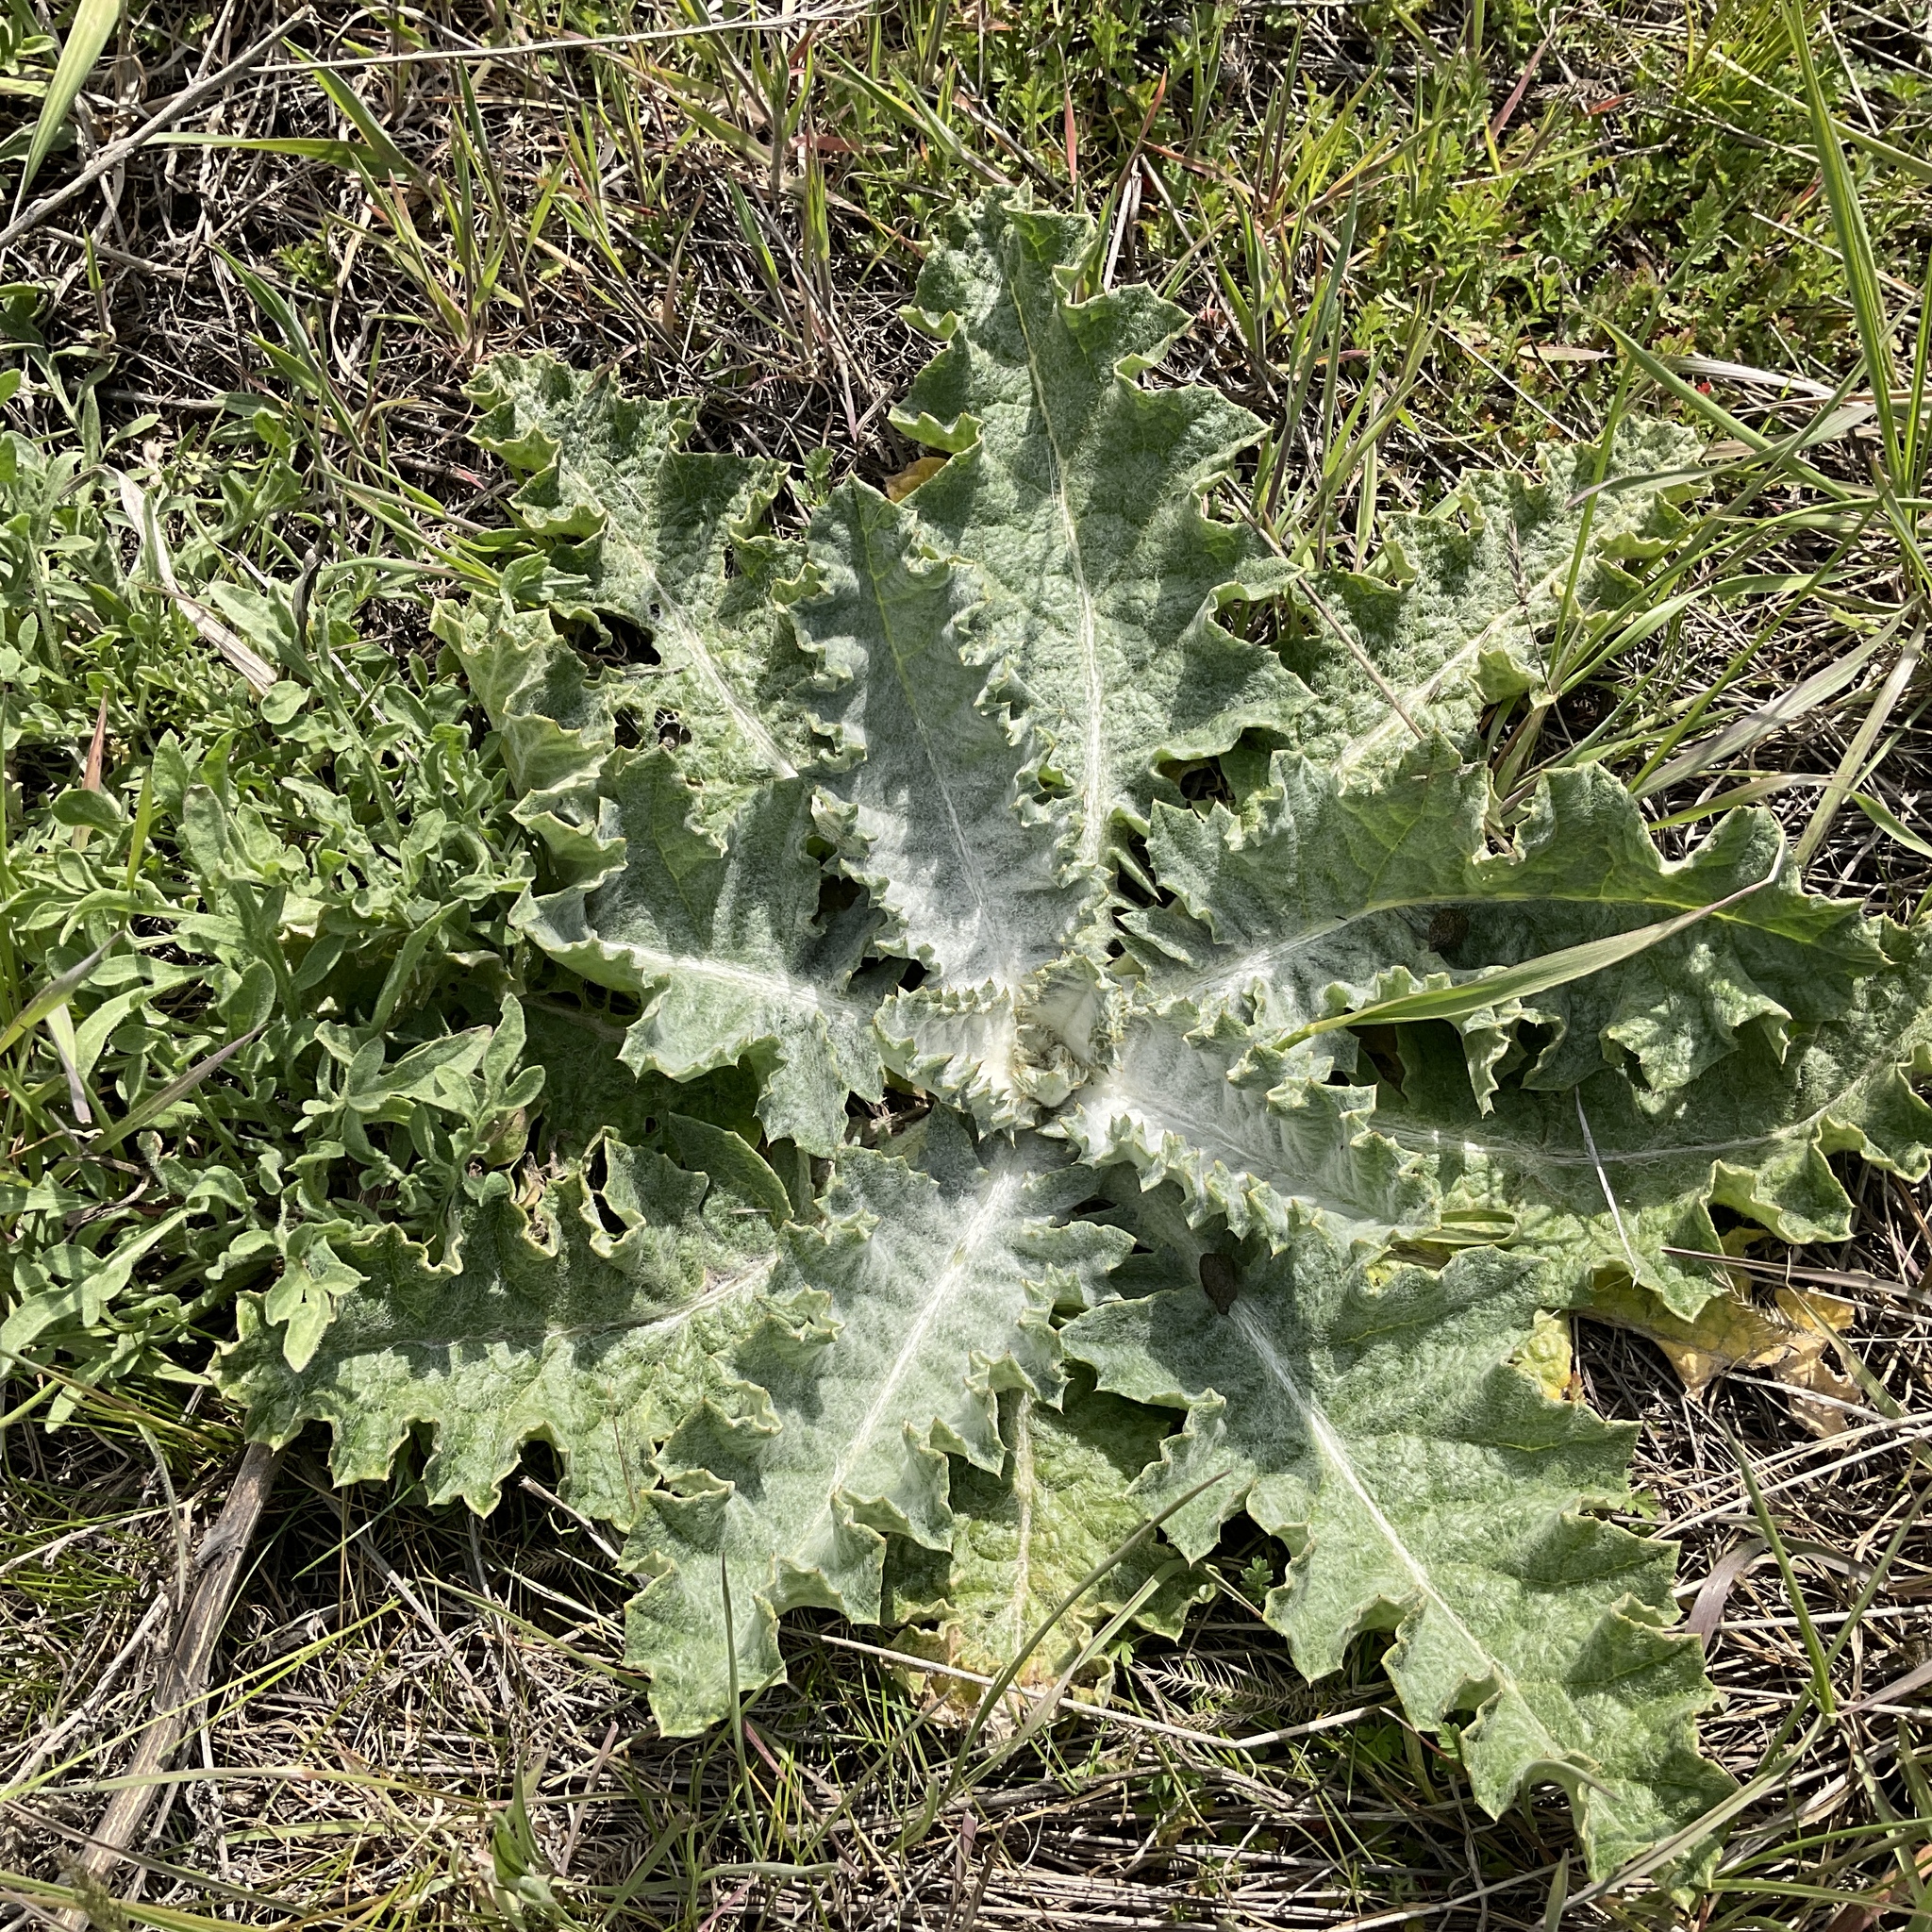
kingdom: Plantae
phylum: Tracheophyta
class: Magnoliopsida
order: Asterales
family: Asteraceae
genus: Onopordum
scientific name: Onopordum acanthium
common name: Scotch thistle
